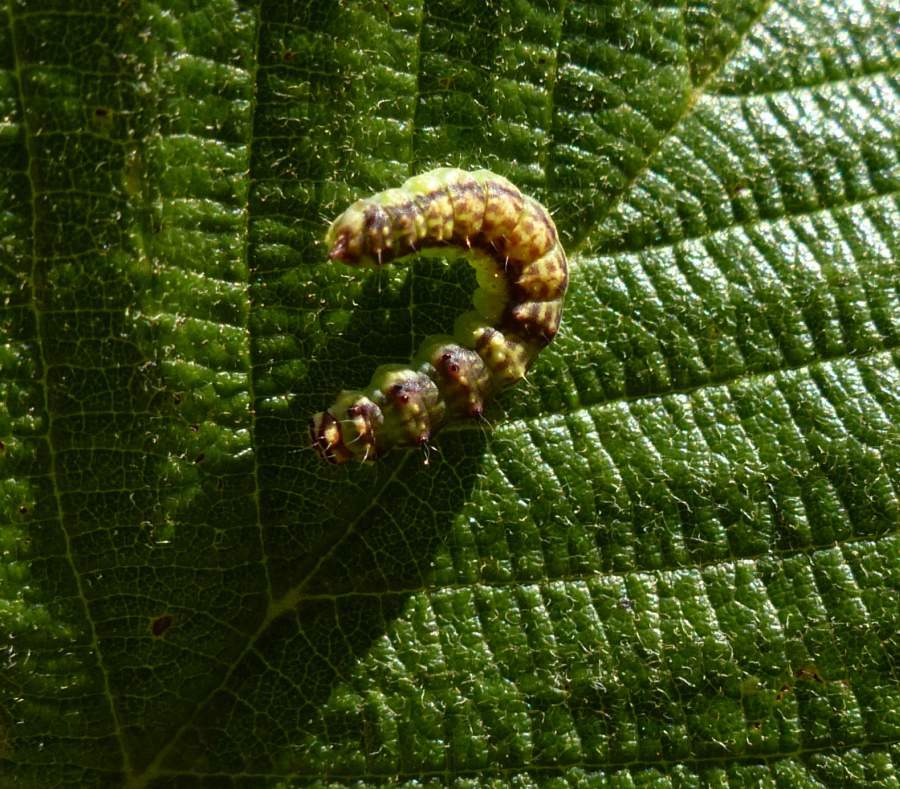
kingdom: Animalia
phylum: Arthropoda
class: Insecta
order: Lepidoptera
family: Drepanidae
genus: Drepana
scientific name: Drepana arcuata
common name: Arched hooktip moth
